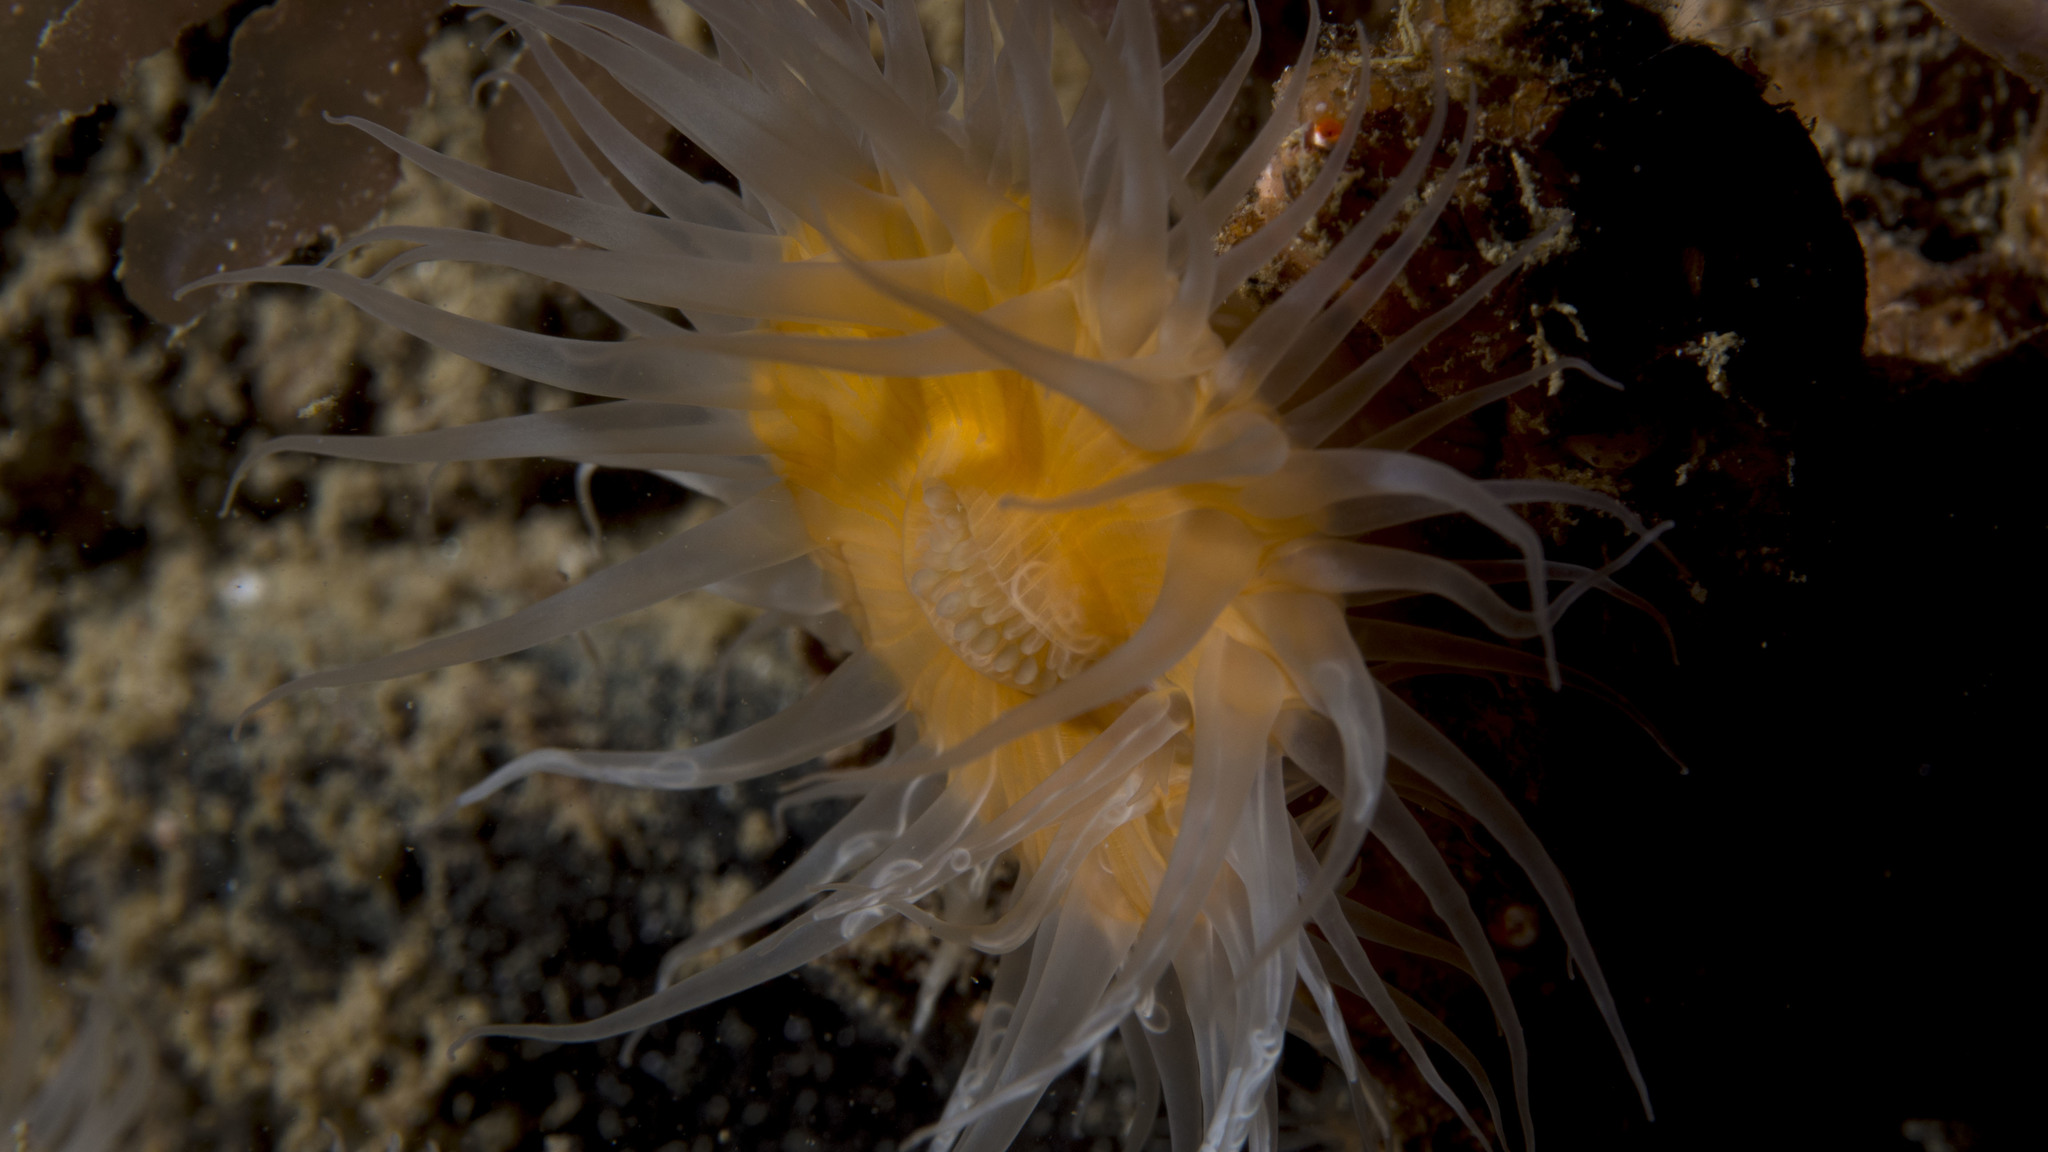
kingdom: Animalia
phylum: Cnidaria
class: Anthozoa
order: Actiniaria
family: Sagartiidae
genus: Anthothoe
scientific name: Anthothoe albocincta
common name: Orange striped anemone
